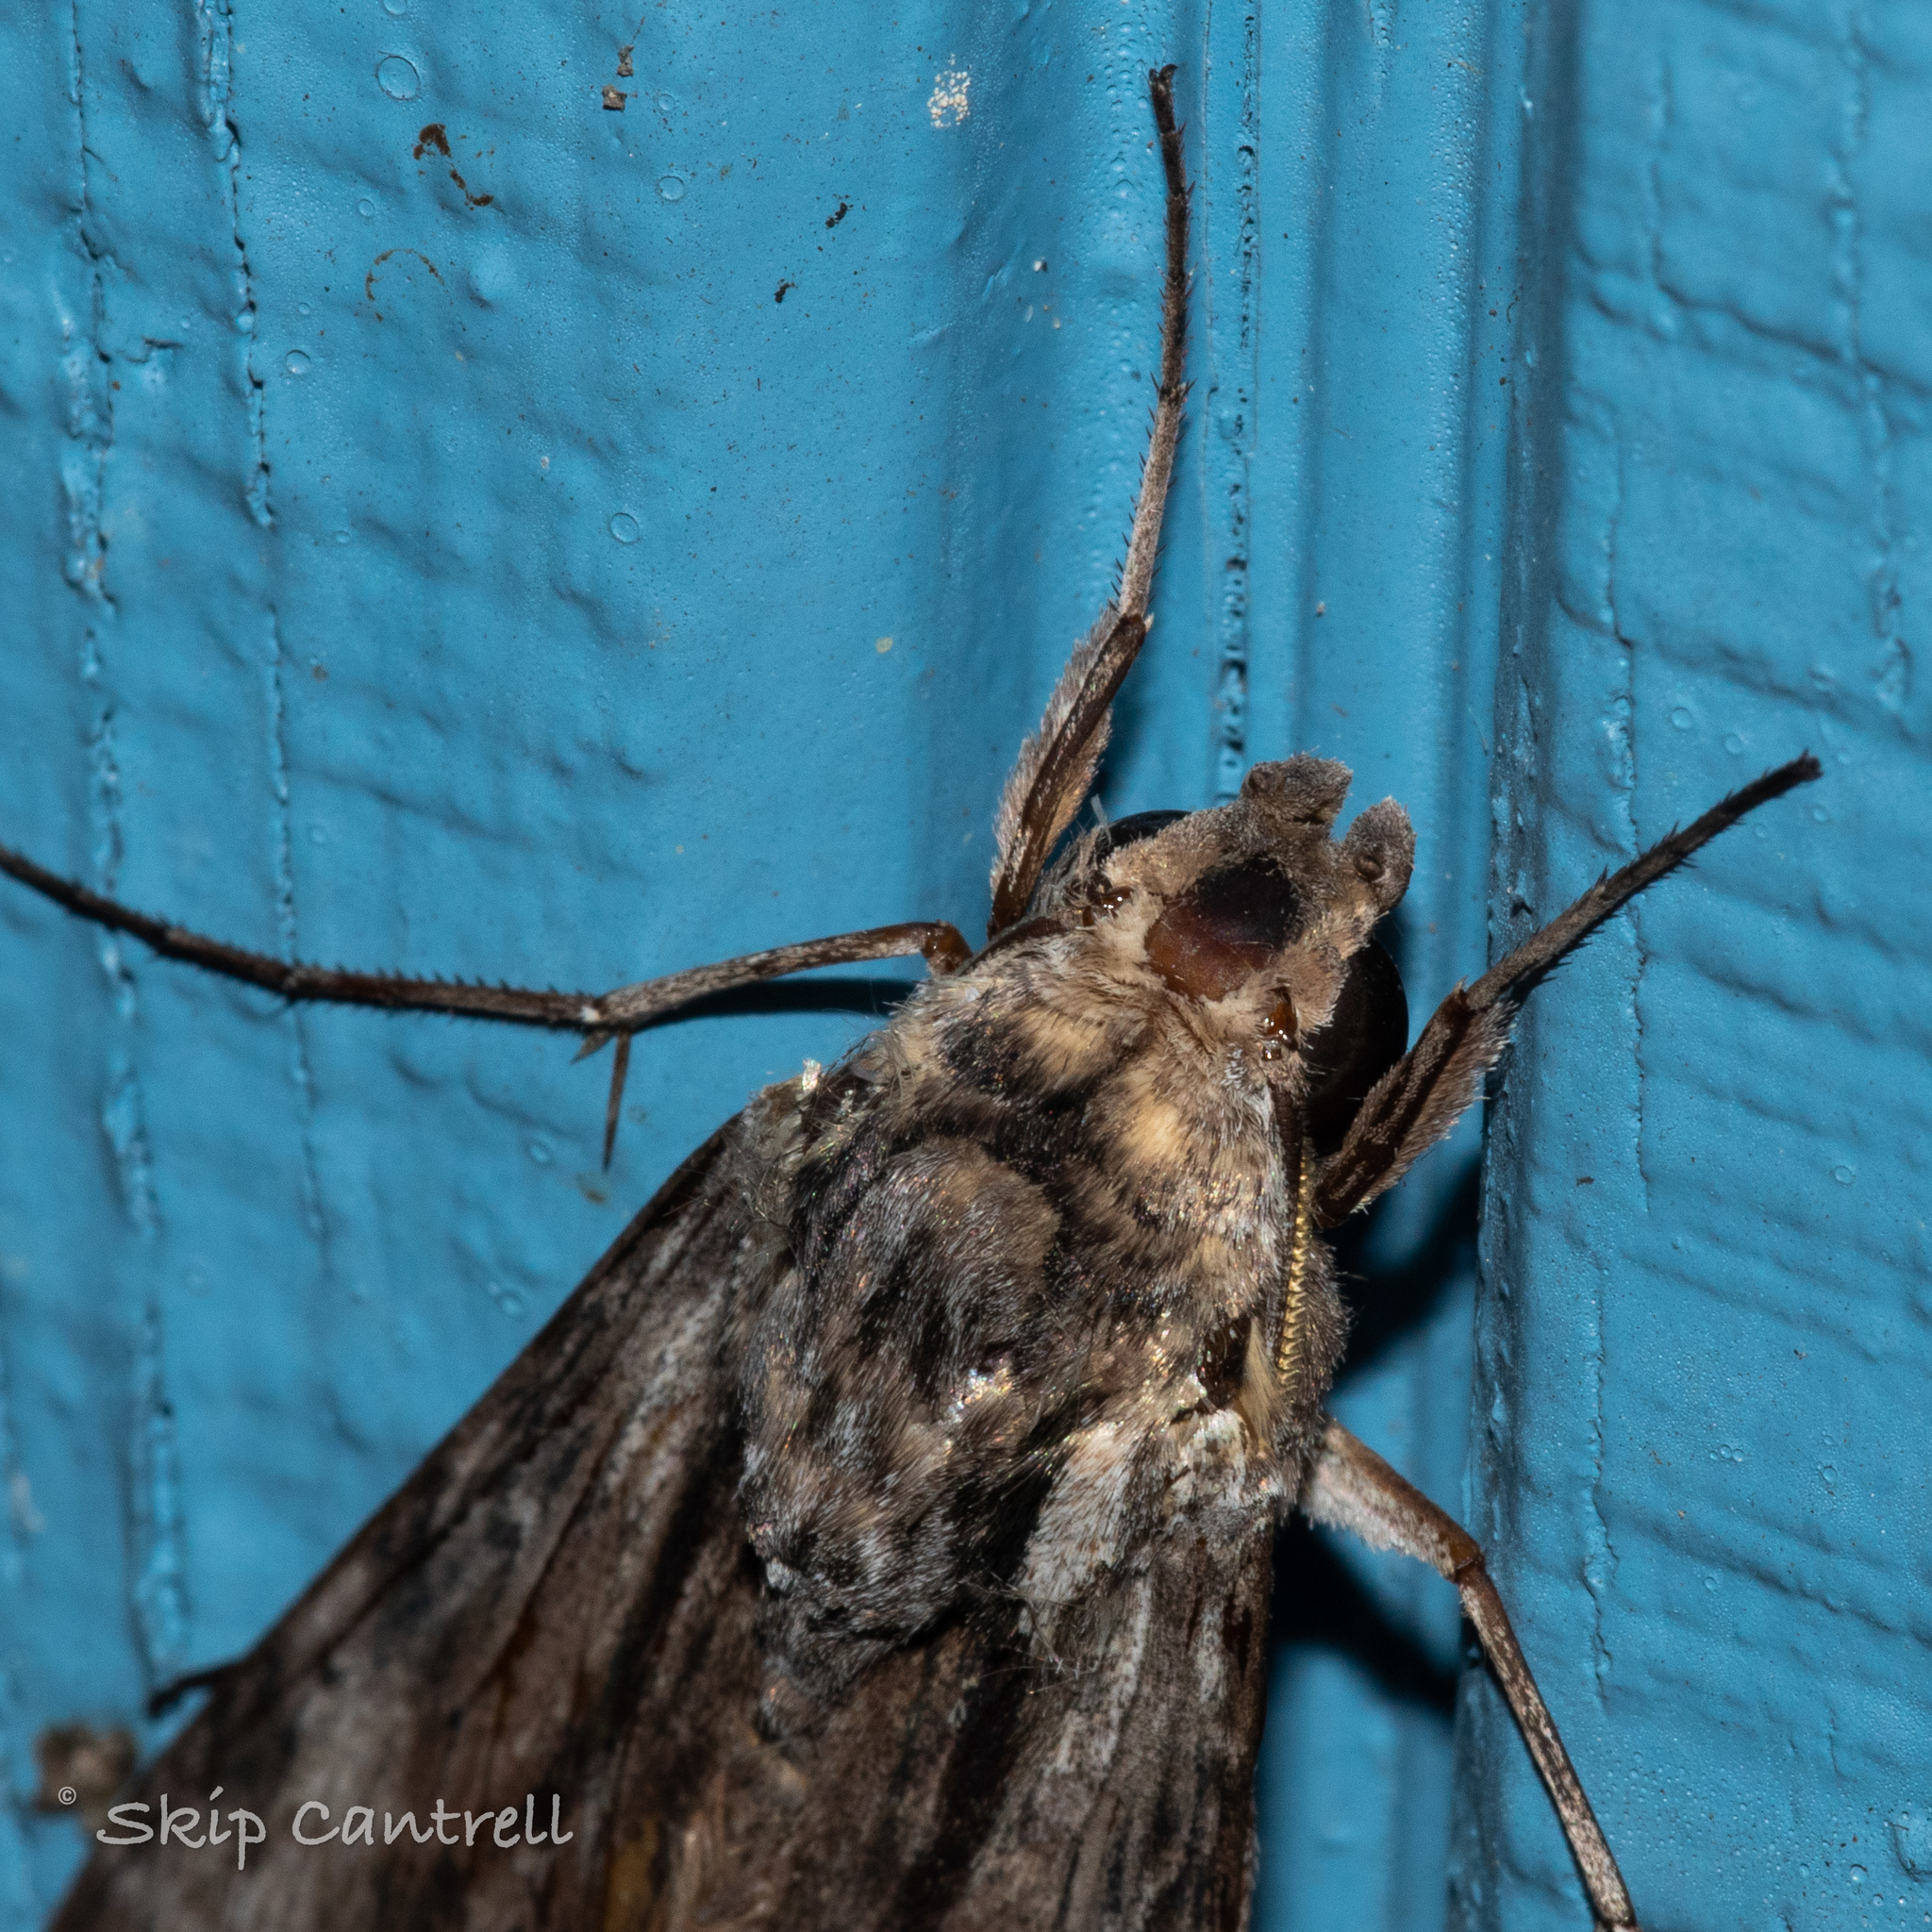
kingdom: Animalia
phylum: Arthropoda
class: Insecta
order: Lepidoptera
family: Sphingidae
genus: Erinnyis
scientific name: Erinnyis obscura
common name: Obscure sphinx
